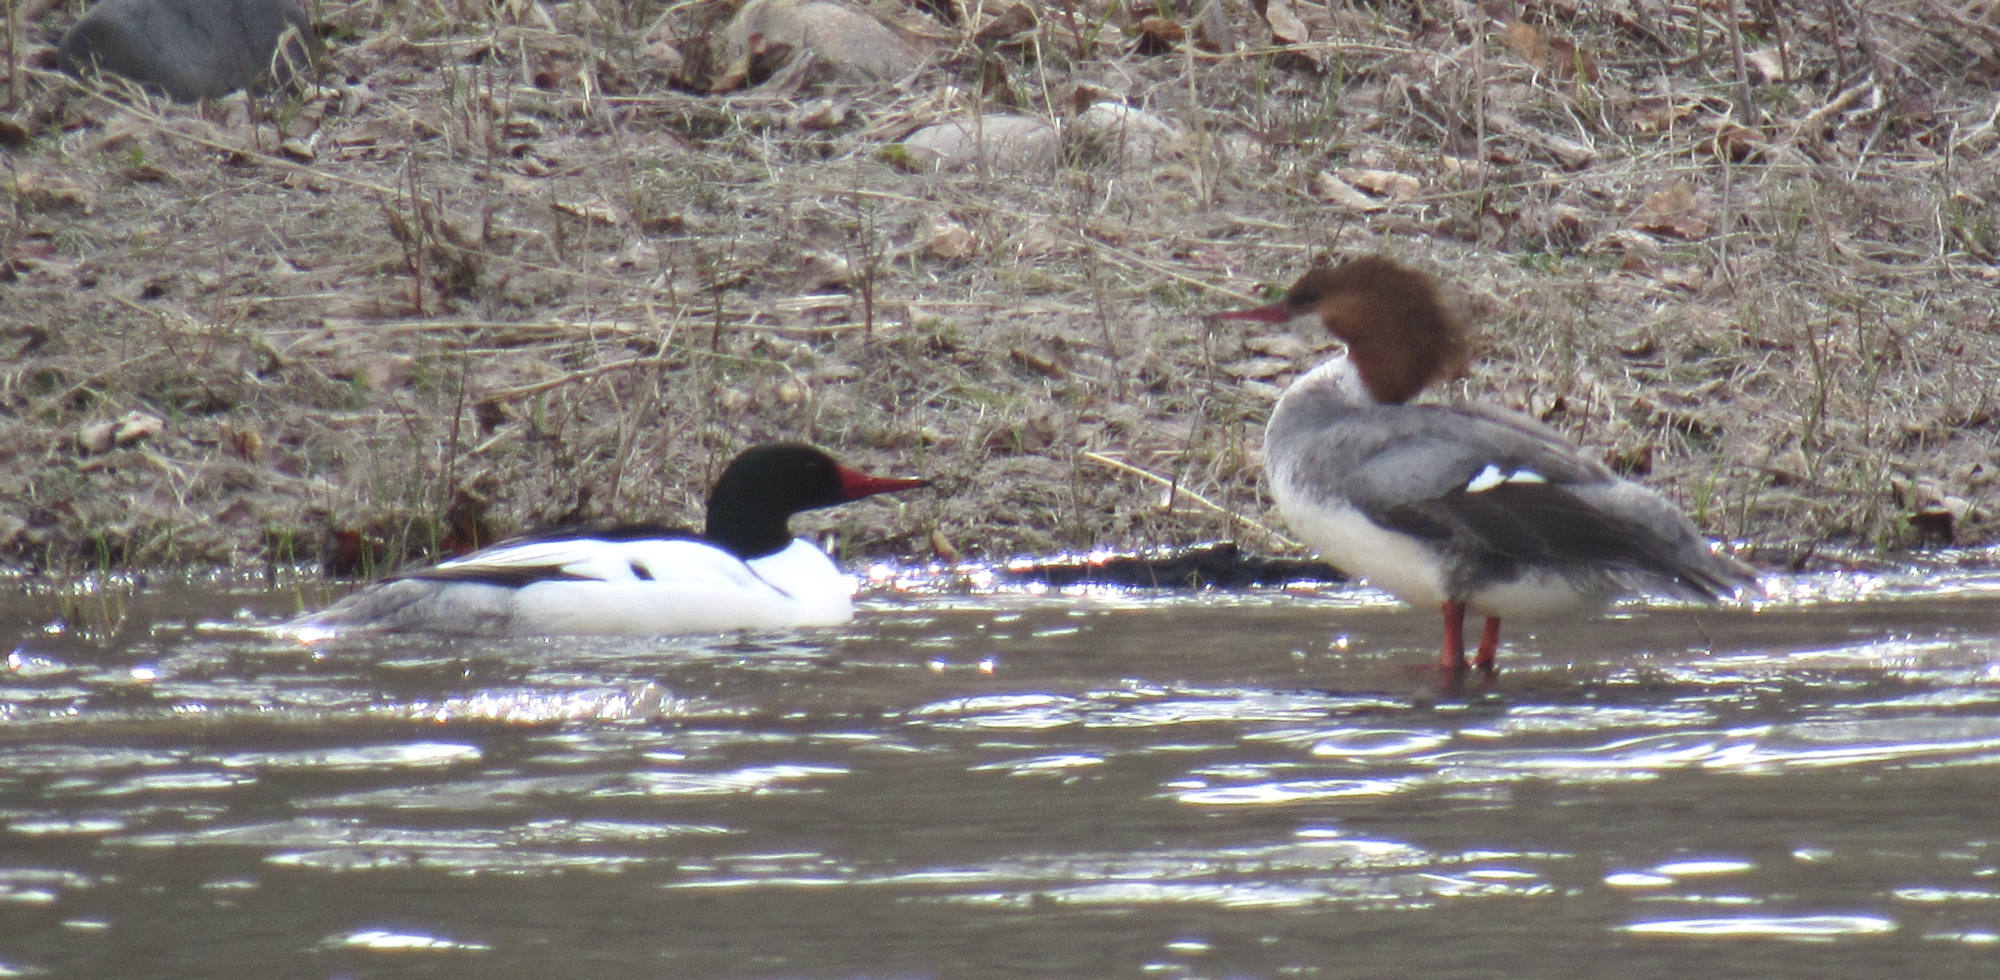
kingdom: Animalia
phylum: Chordata
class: Aves
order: Anseriformes
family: Anatidae
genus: Mergus
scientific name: Mergus merganser
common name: Common merganser
